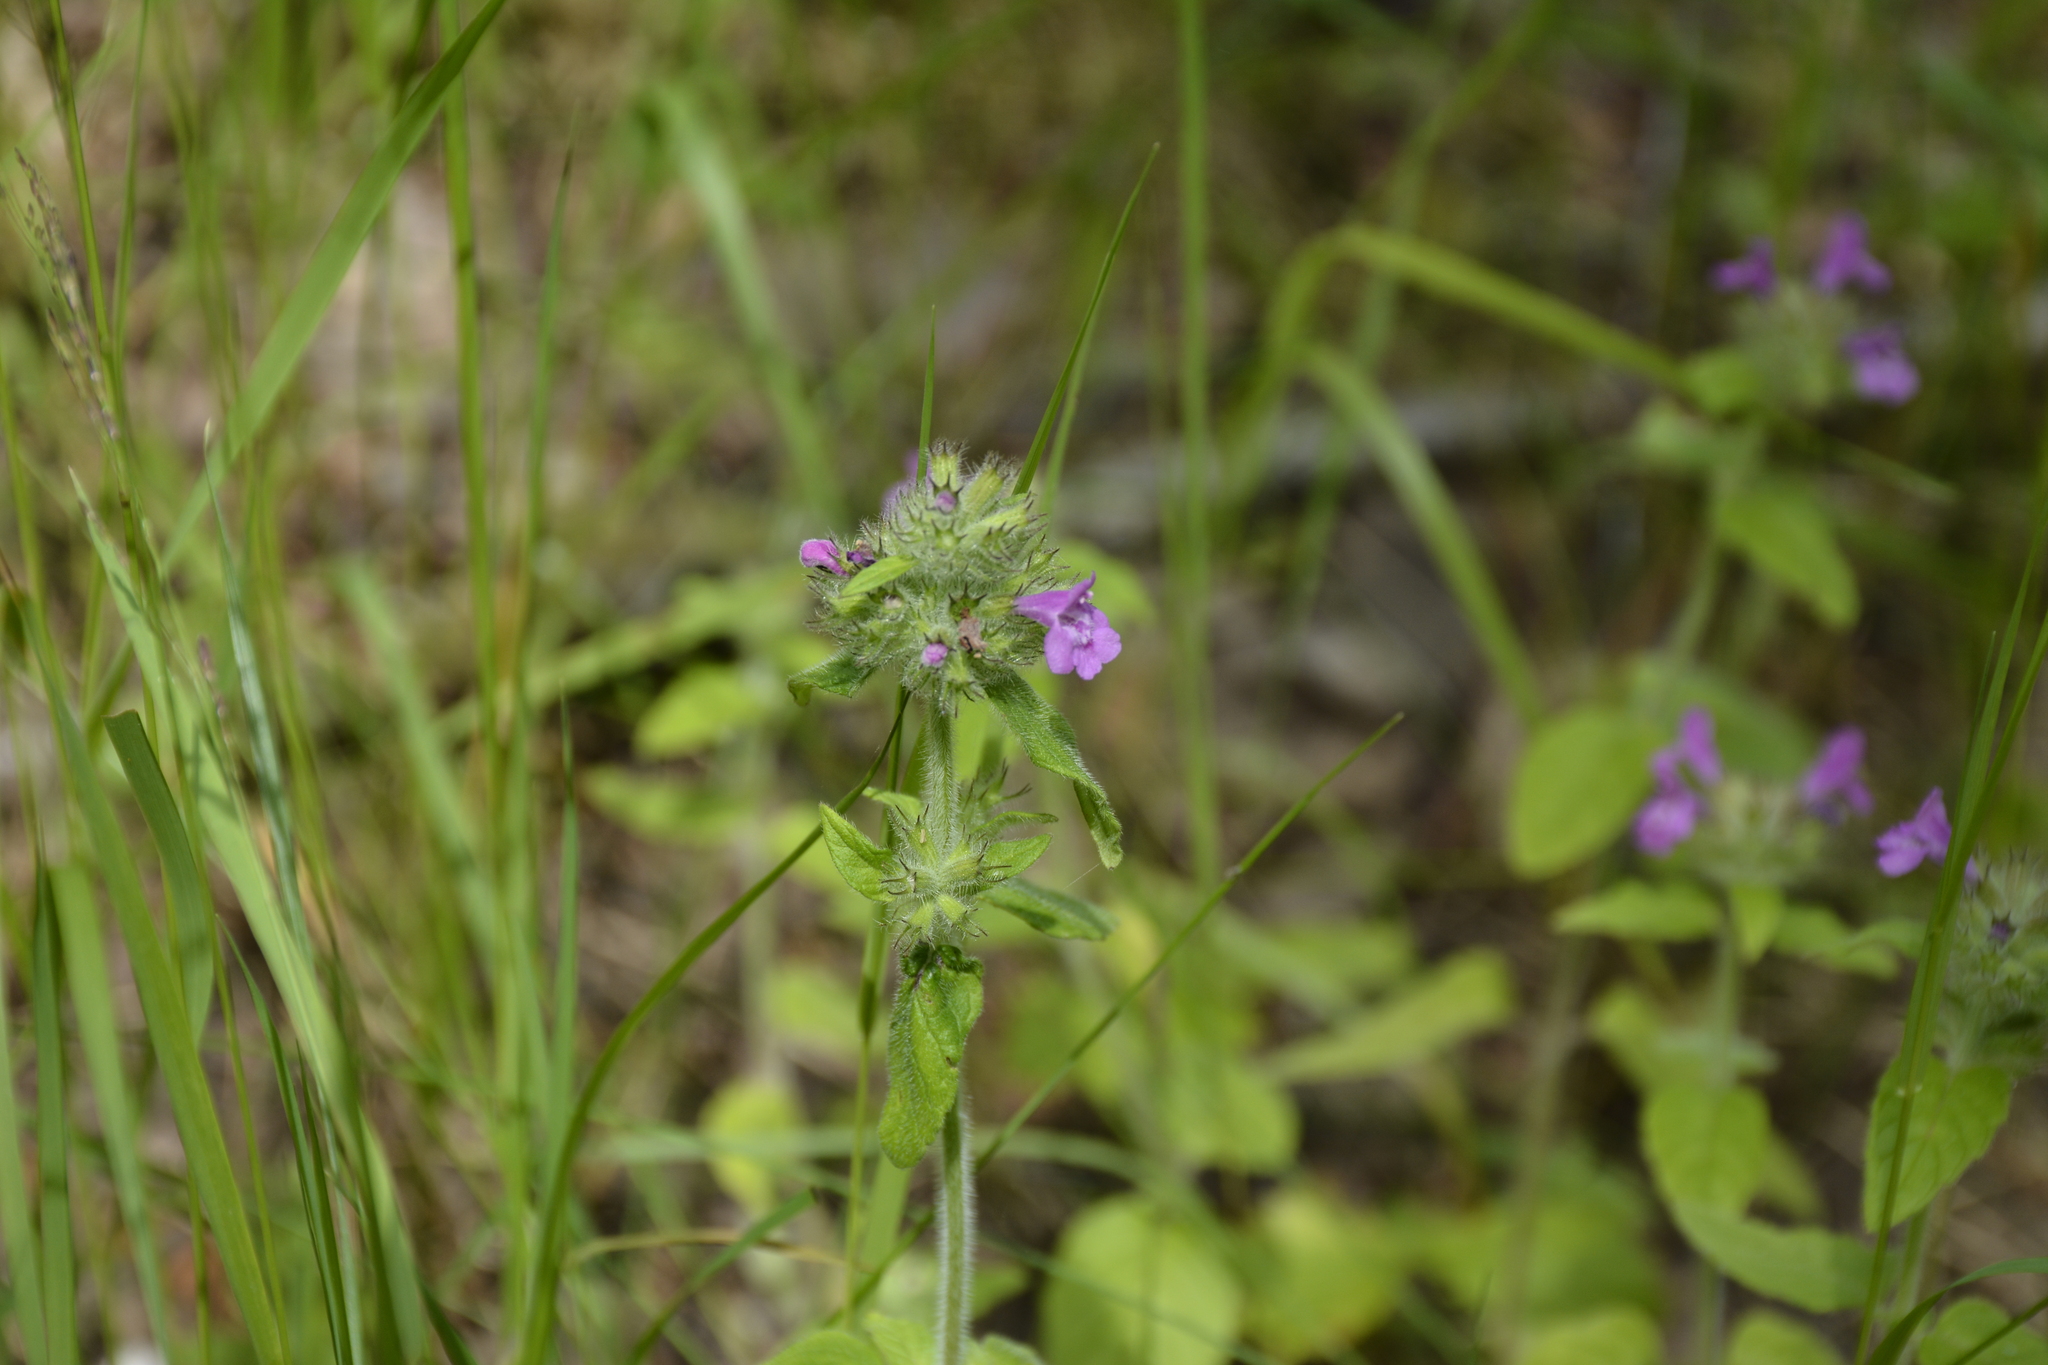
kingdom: Plantae
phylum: Tracheophyta
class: Magnoliopsida
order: Lamiales
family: Lamiaceae
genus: Clinopodium
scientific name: Clinopodium vulgare
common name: Wild basil
